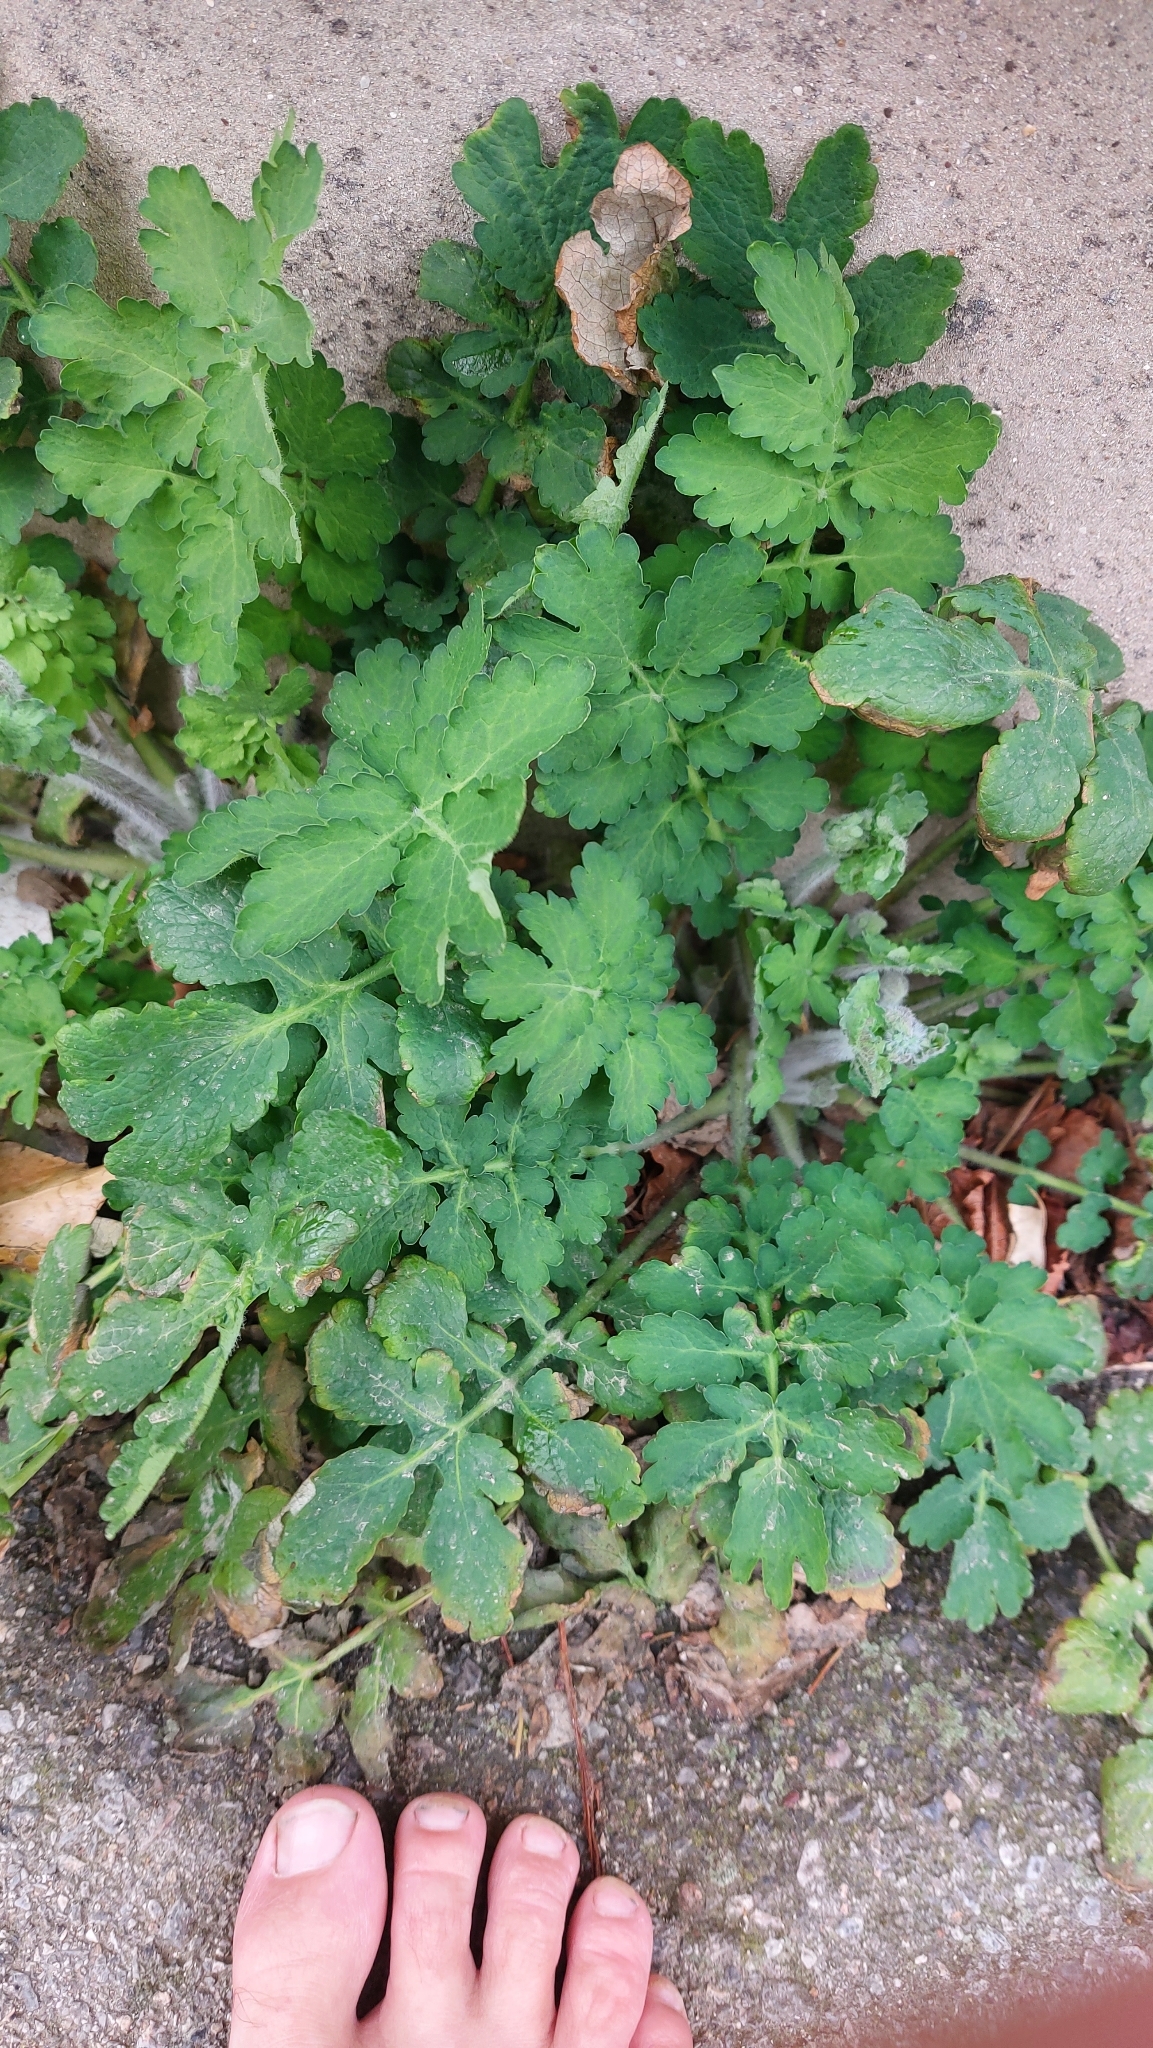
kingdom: Plantae
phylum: Tracheophyta
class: Magnoliopsida
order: Ranunculales
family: Papaveraceae
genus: Chelidonium
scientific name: Chelidonium majus
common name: Greater celandine
